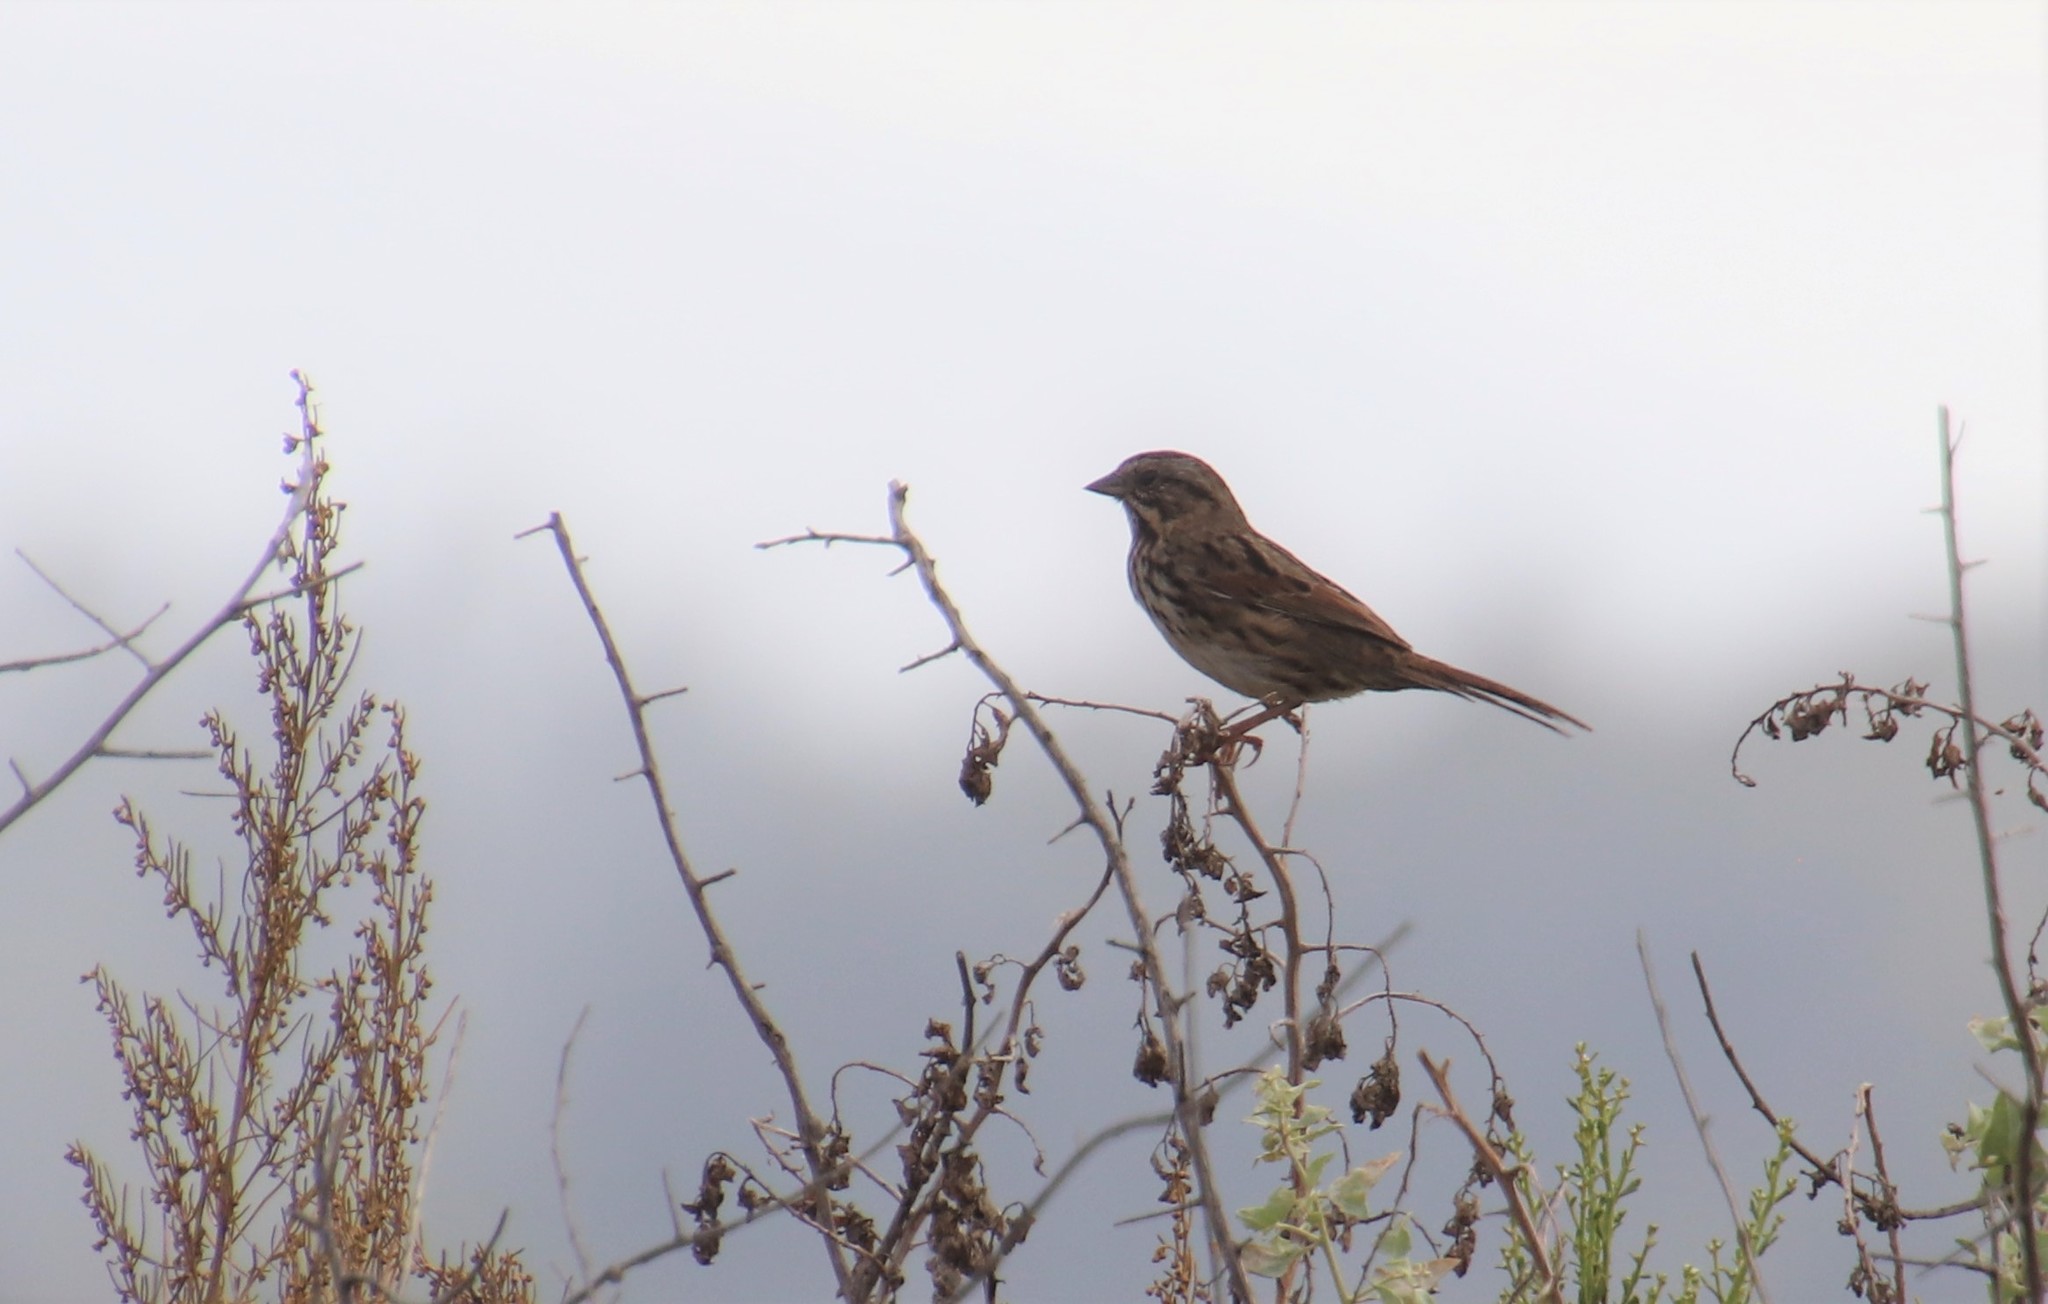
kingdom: Animalia
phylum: Chordata
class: Aves
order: Passeriformes
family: Passerellidae
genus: Melospiza
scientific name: Melospiza melodia
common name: Song sparrow
